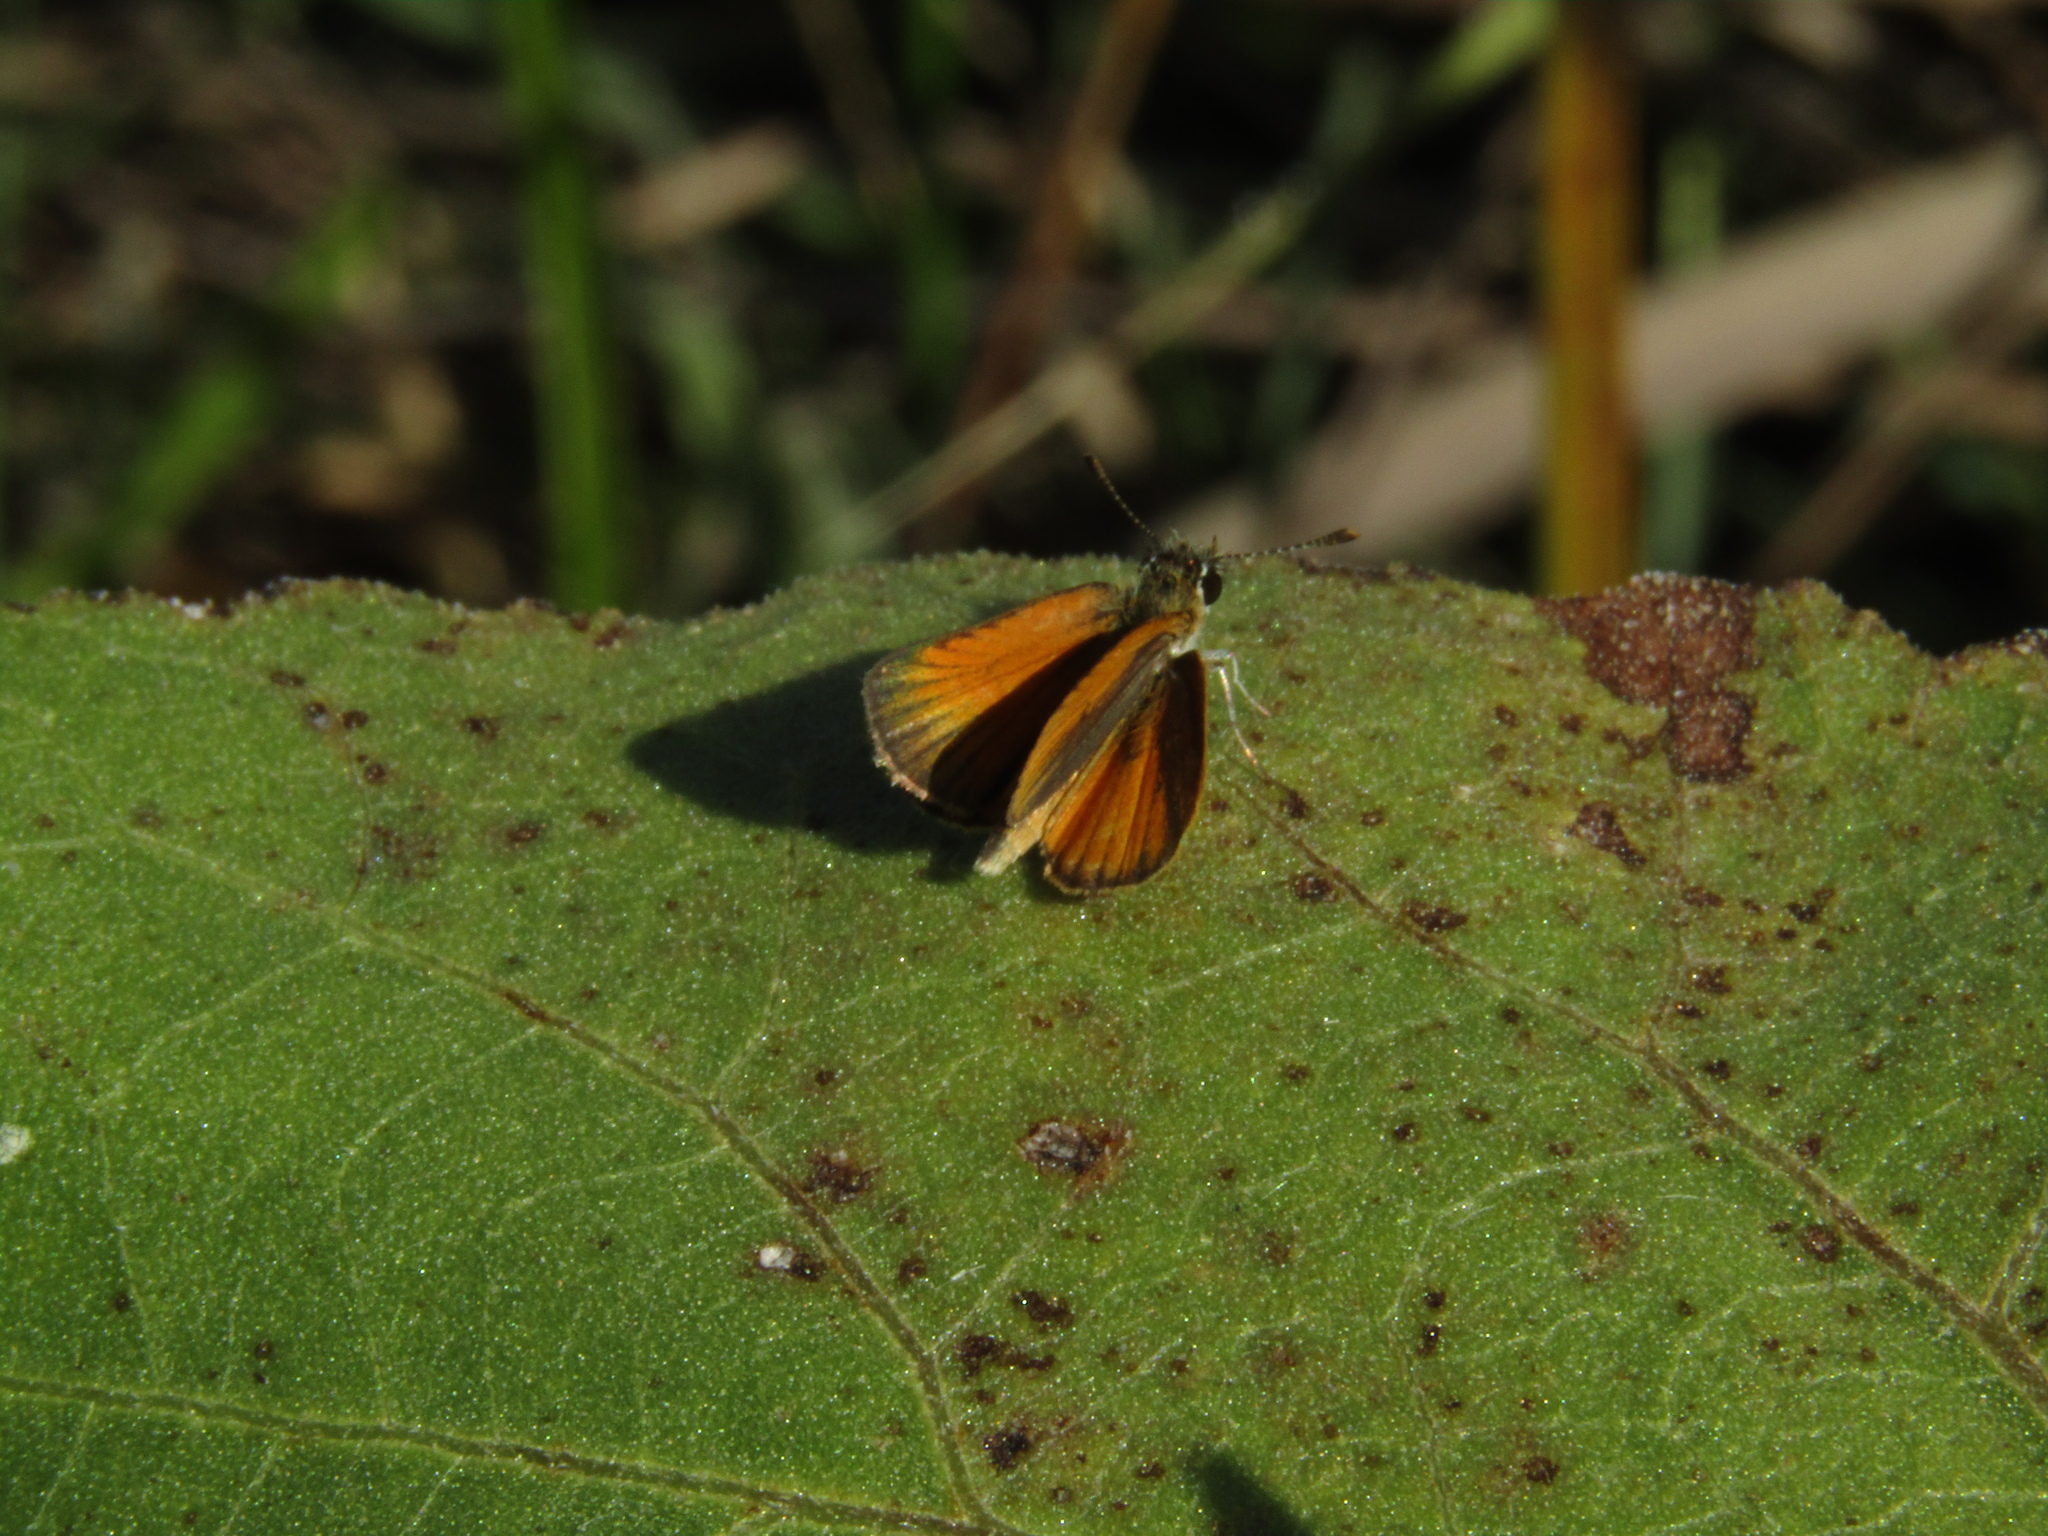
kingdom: Animalia
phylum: Arthropoda
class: Insecta
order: Lepidoptera
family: Hesperiidae
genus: Ancyloxypha
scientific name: Ancyloxypha nitedula
